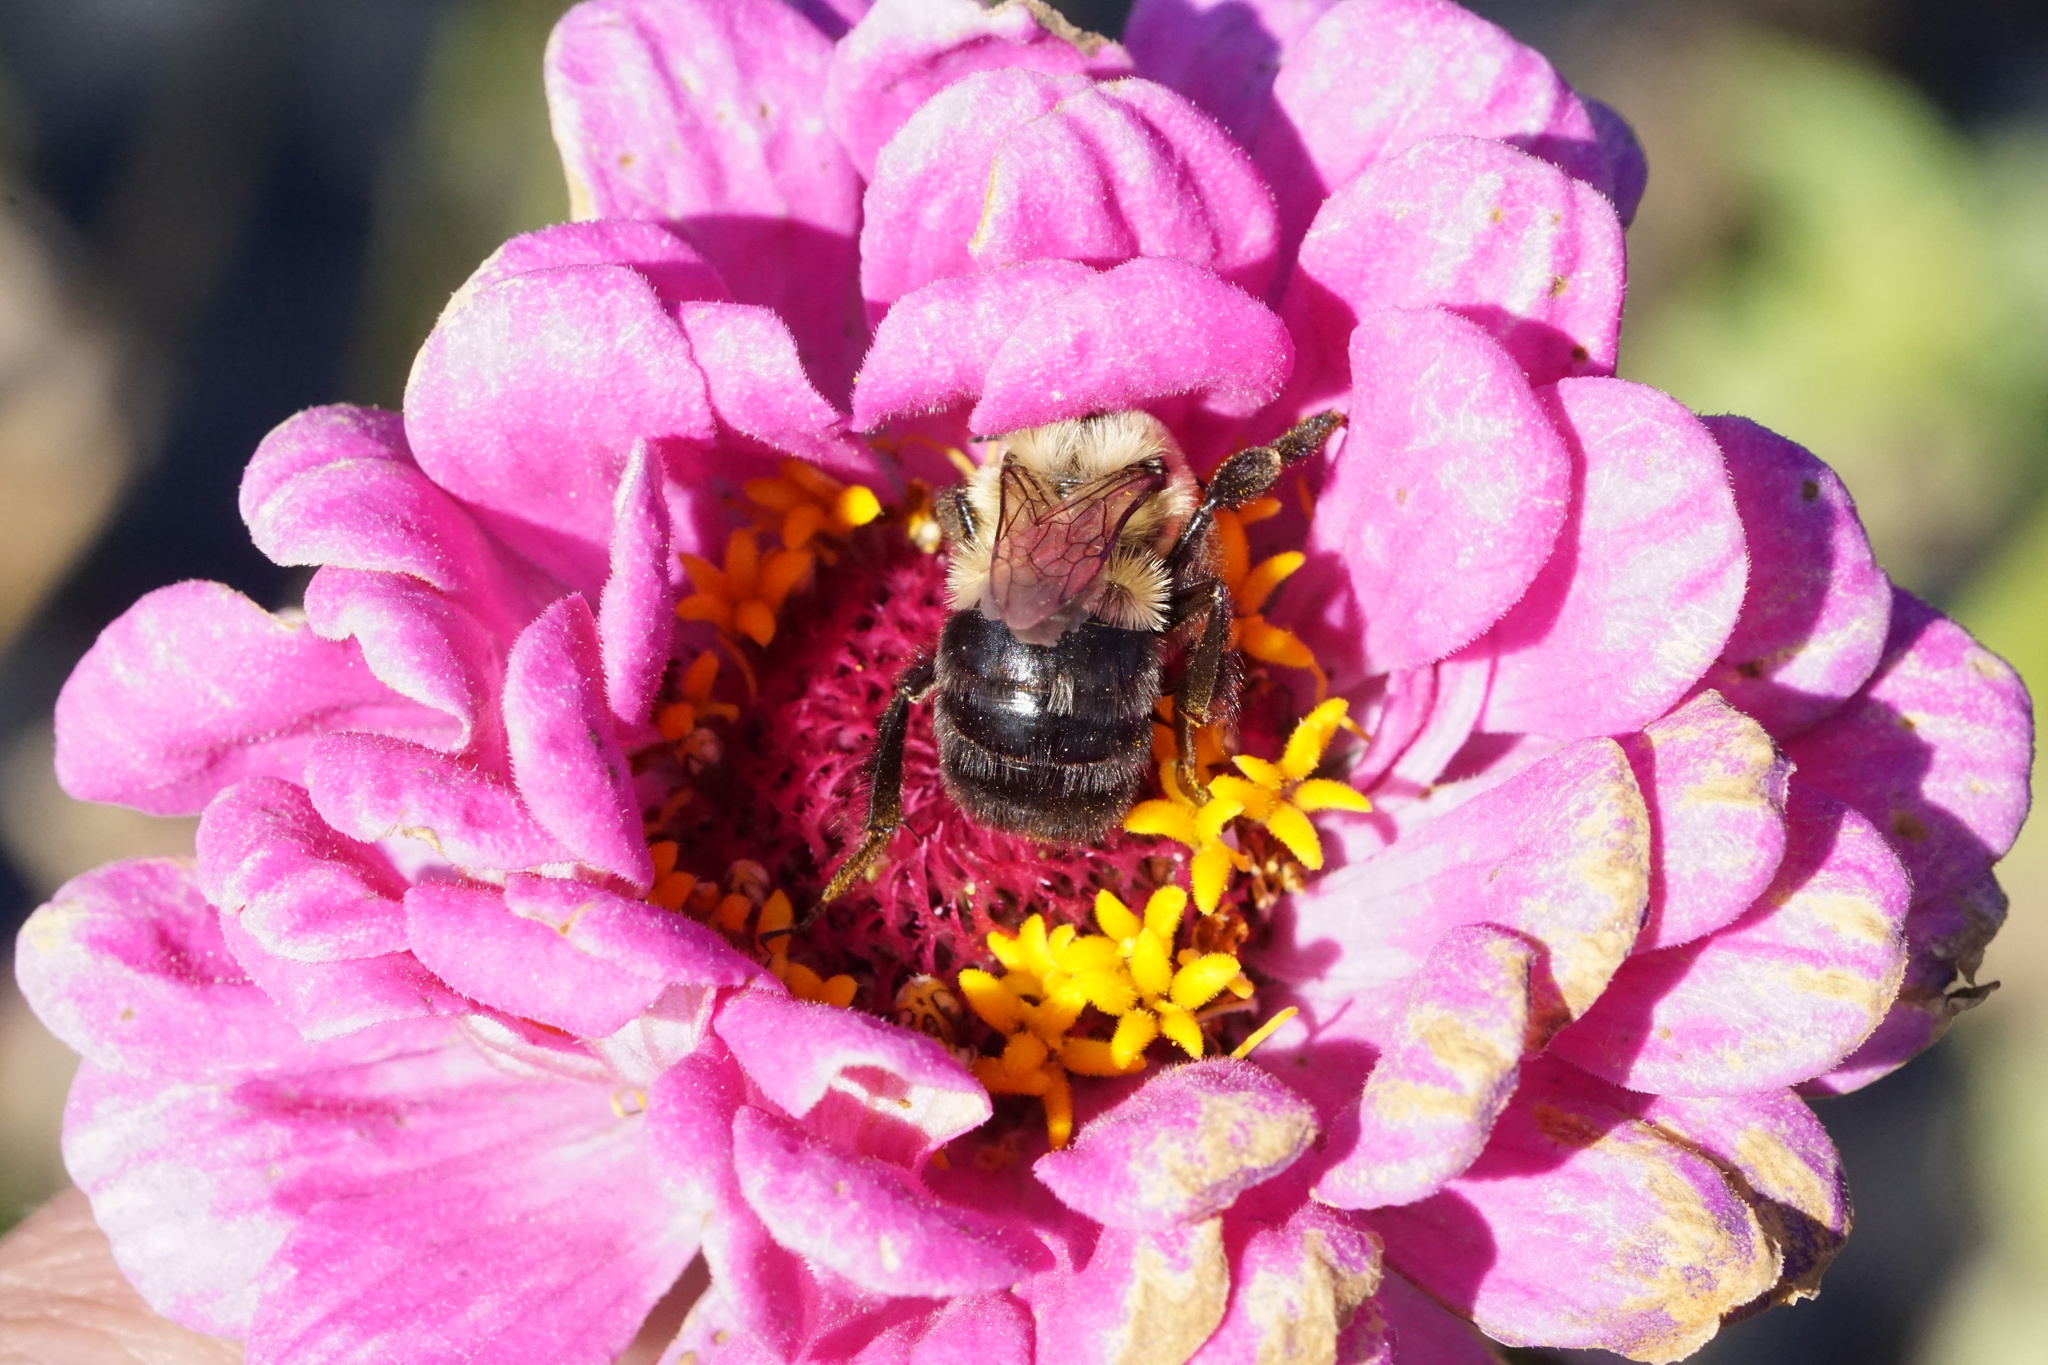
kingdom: Animalia
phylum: Arthropoda
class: Insecta
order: Hymenoptera
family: Apidae
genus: Bombus
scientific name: Bombus impatiens
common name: Common eastern bumble bee
